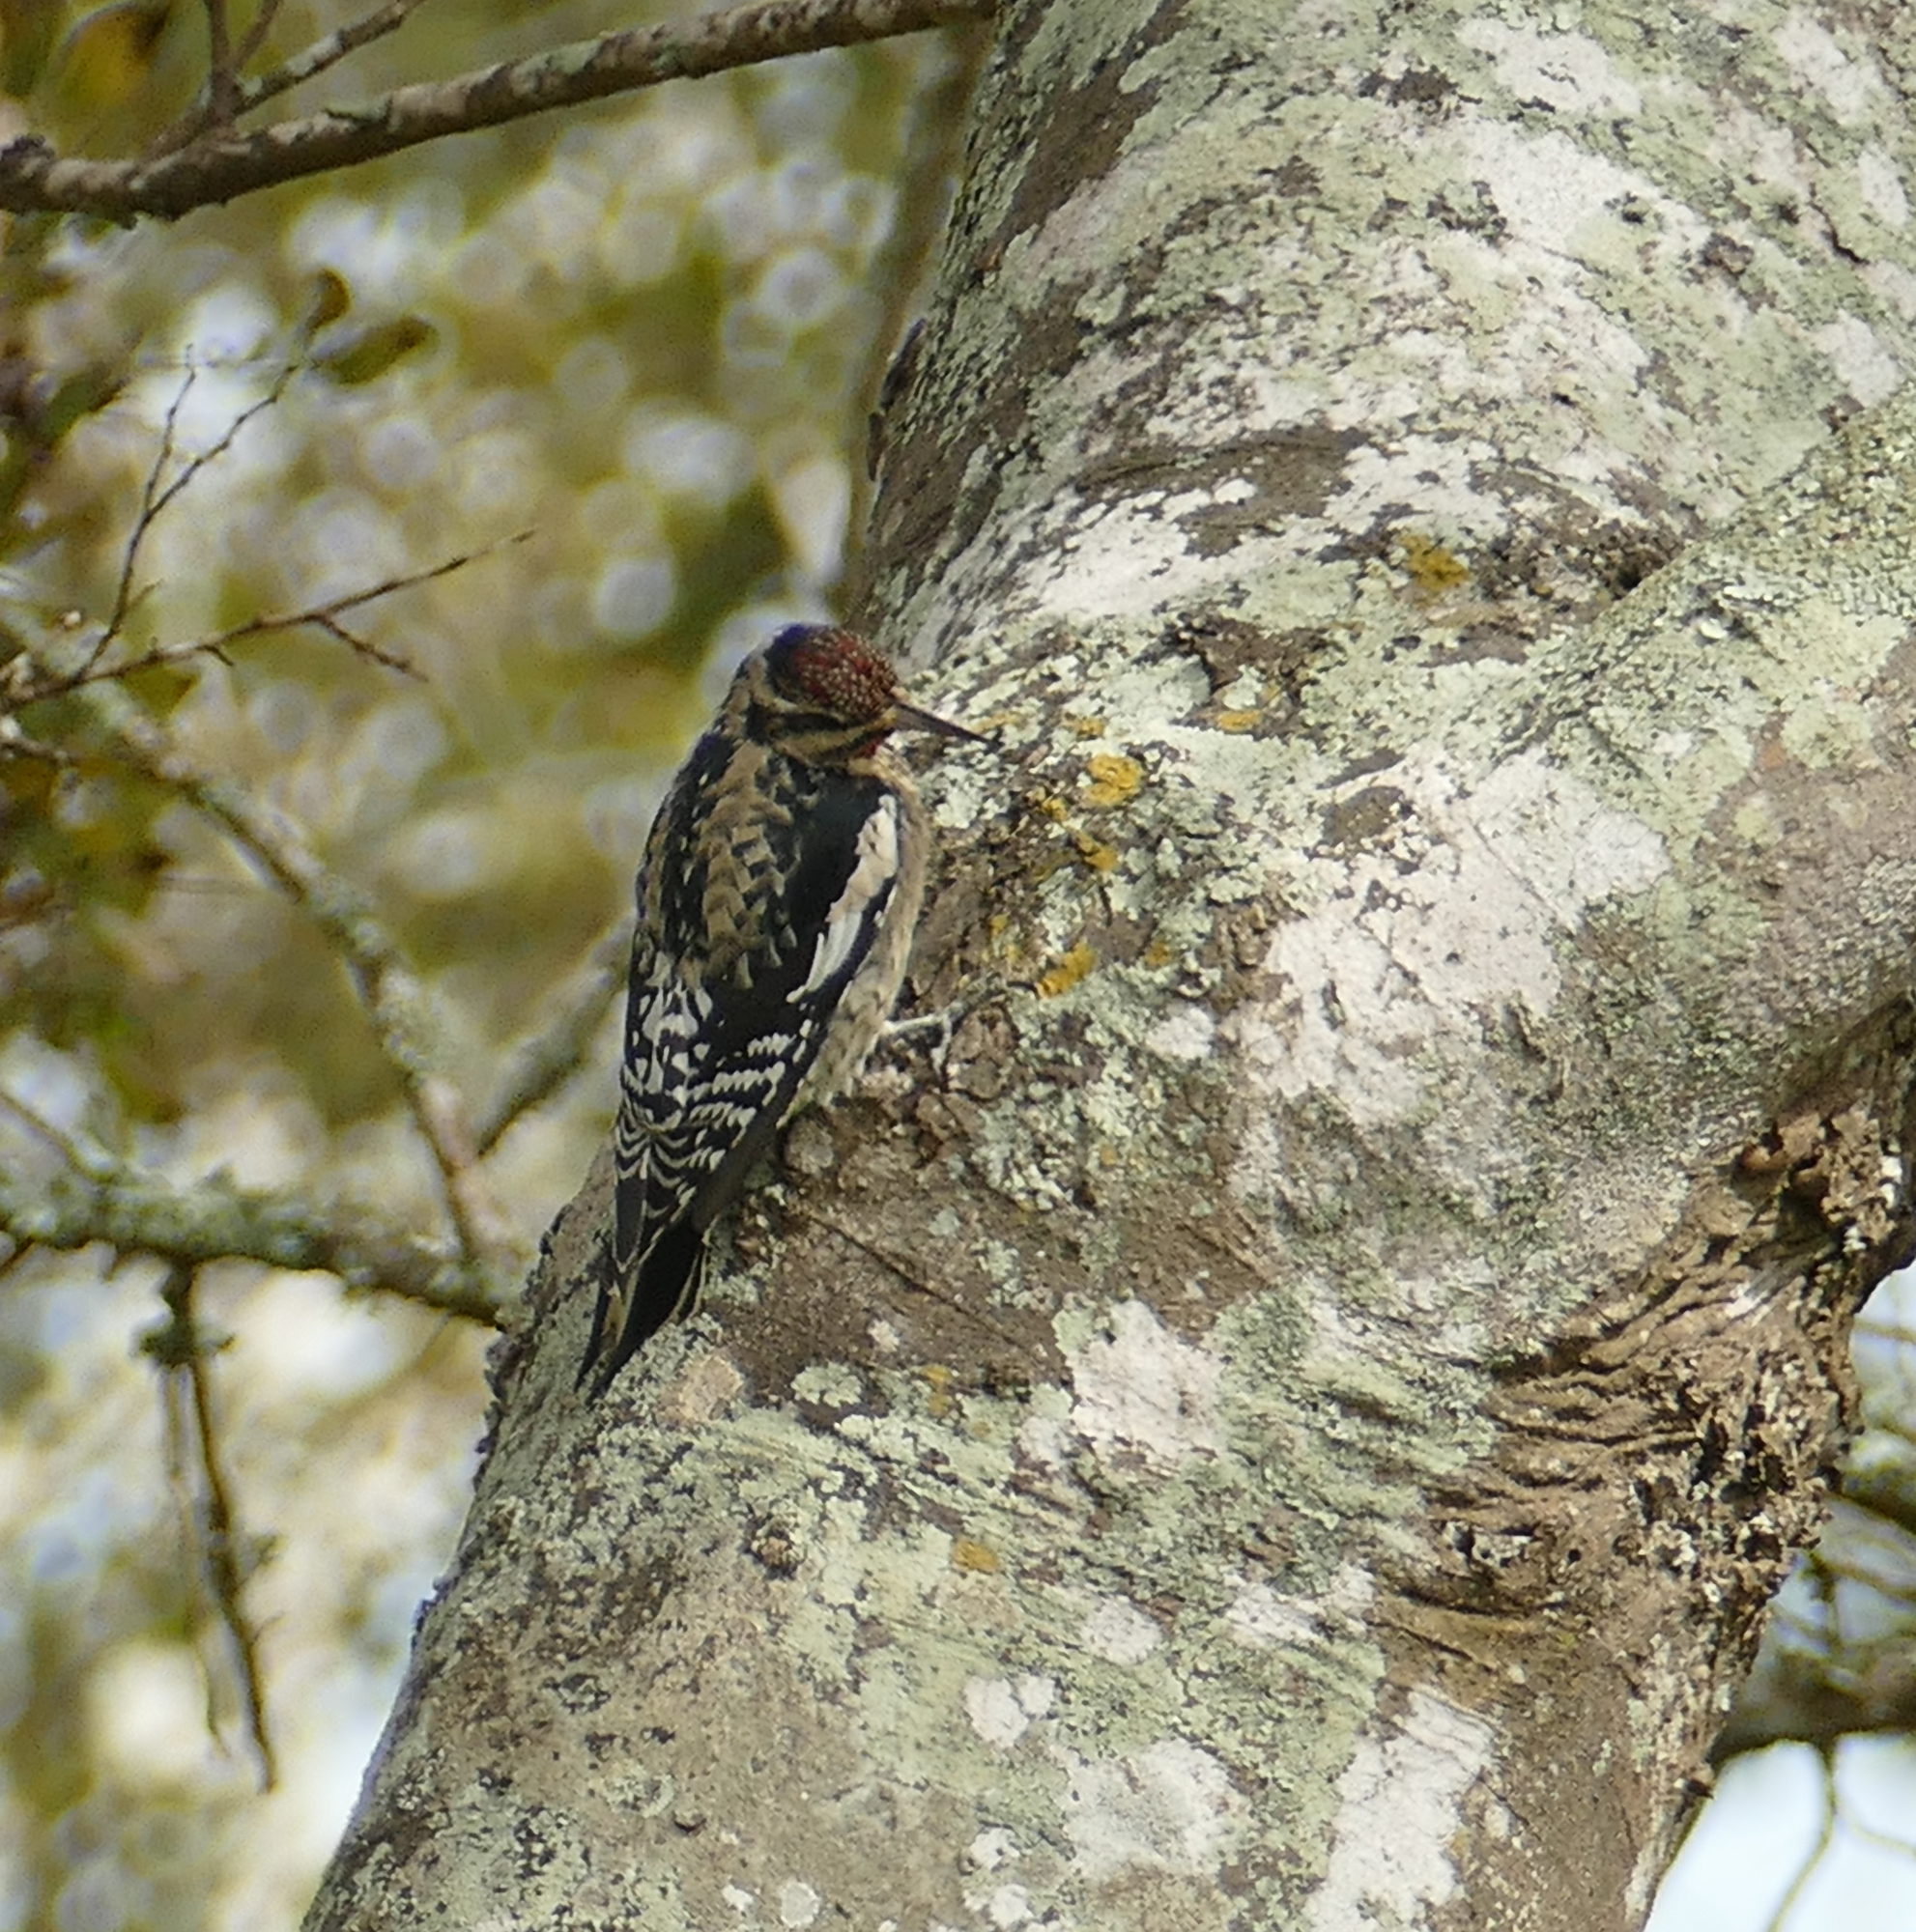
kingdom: Animalia
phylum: Chordata
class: Aves
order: Piciformes
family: Picidae
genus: Sphyrapicus
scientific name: Sphyrapicus varius
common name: Yellow-bellied sapsucker
